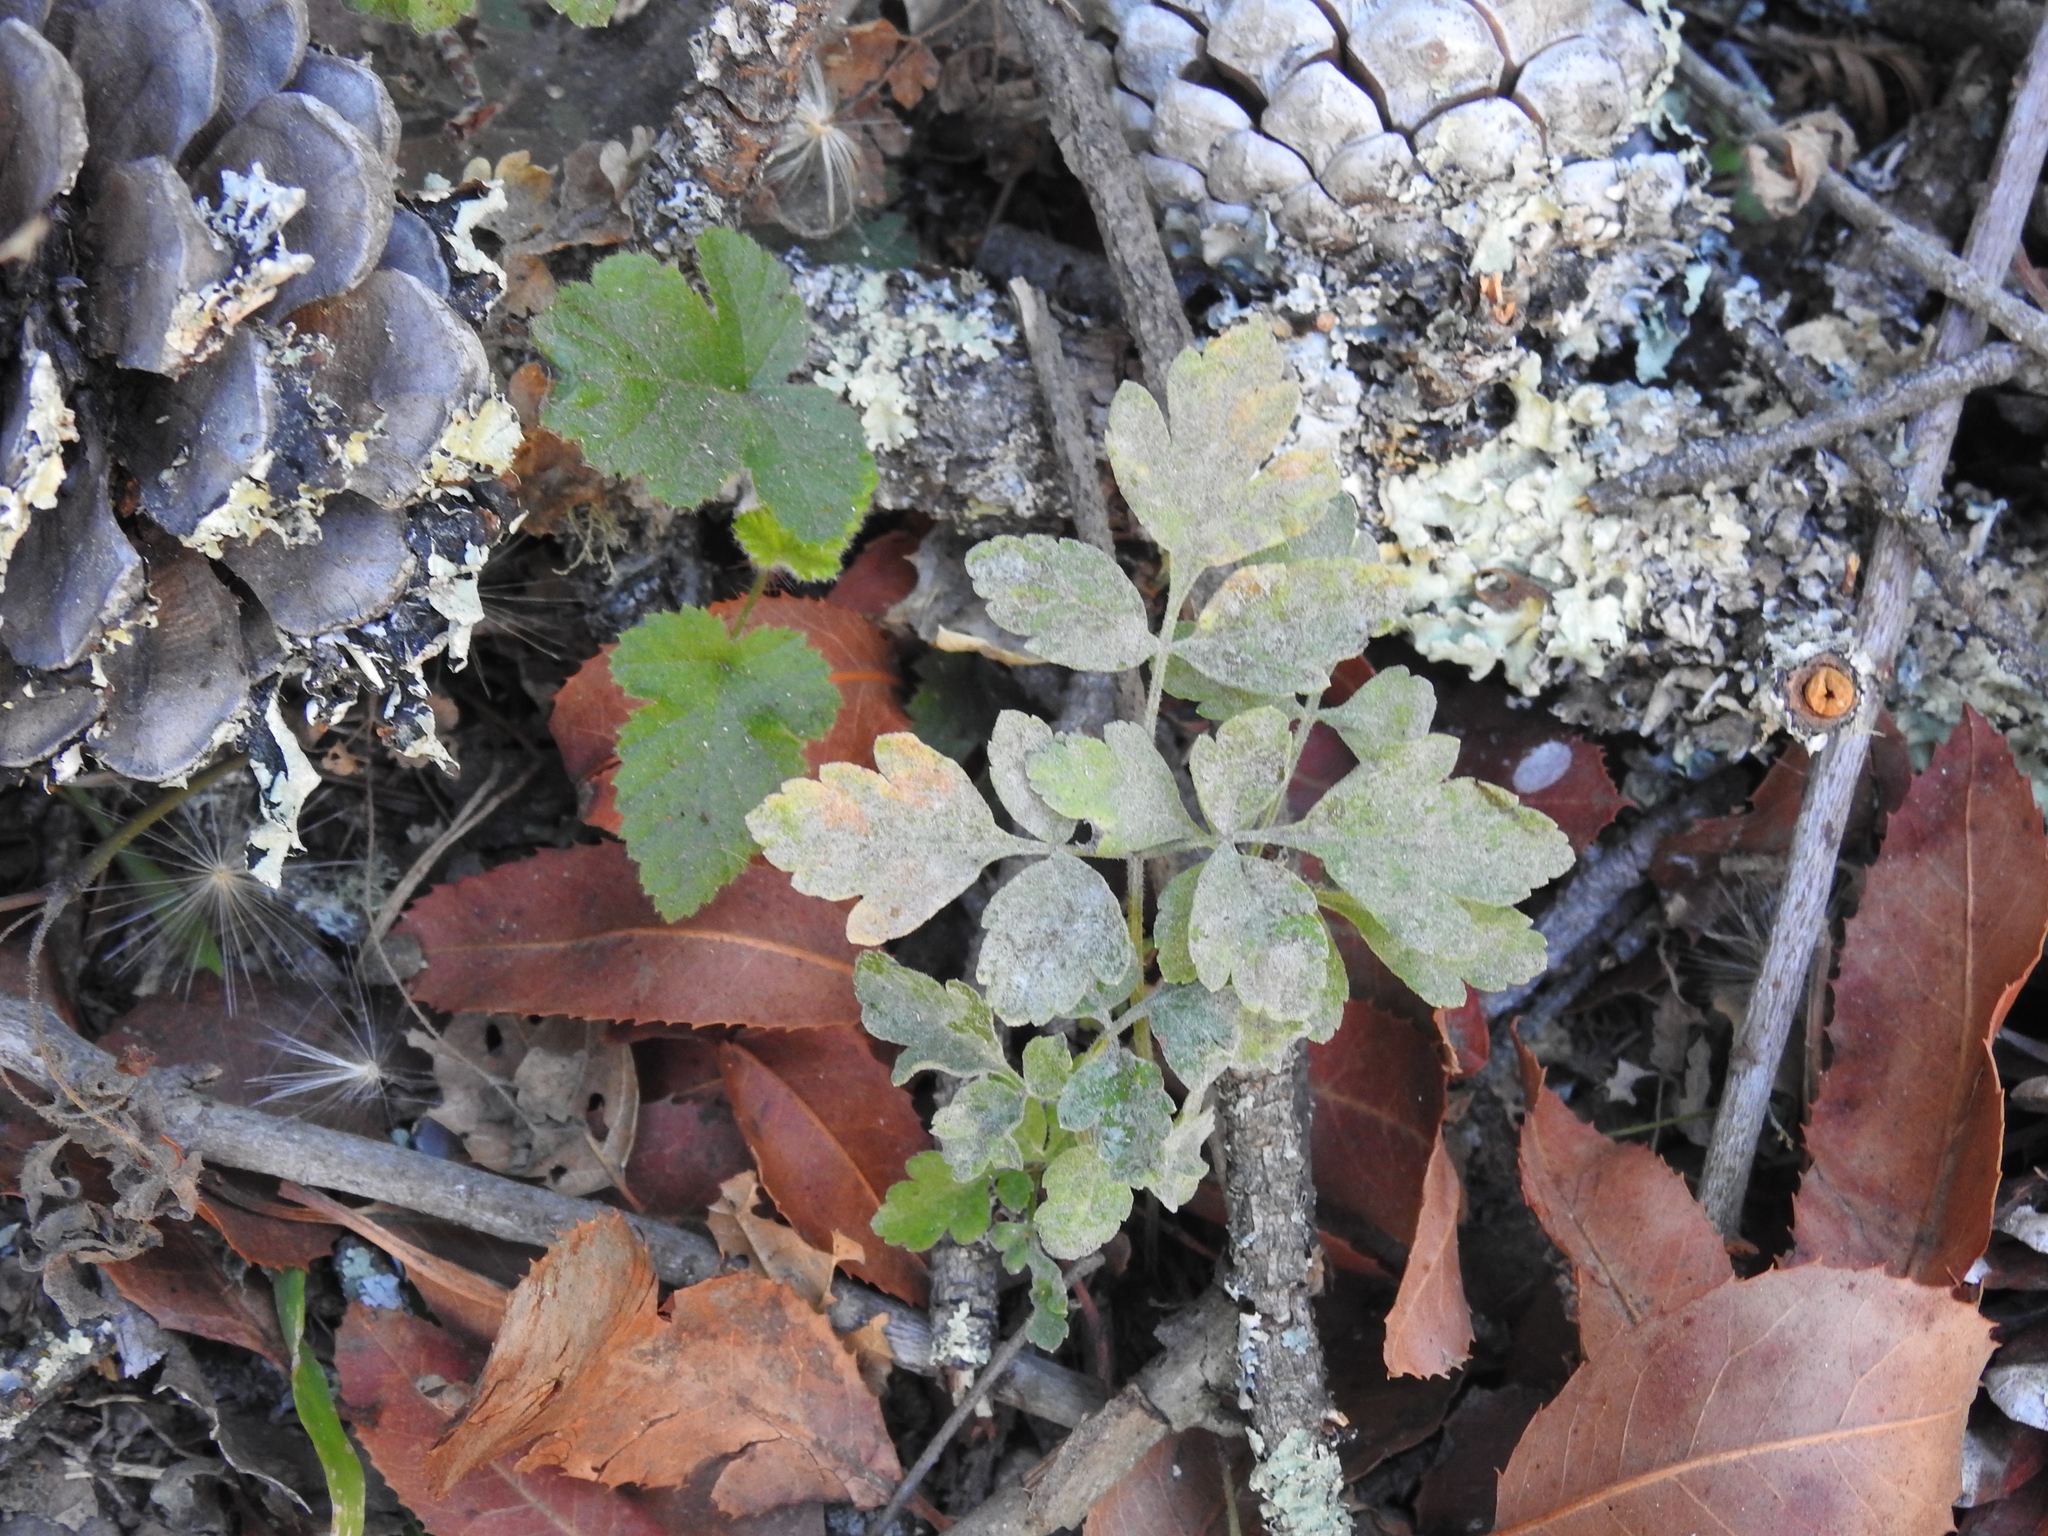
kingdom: Plantae
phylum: Tracheophyta
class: Magnoliopsida
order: Apiales
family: Apiaceae
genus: Osmorhiza
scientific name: Osmorhiza berteroi
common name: Mountain sweet cicely
